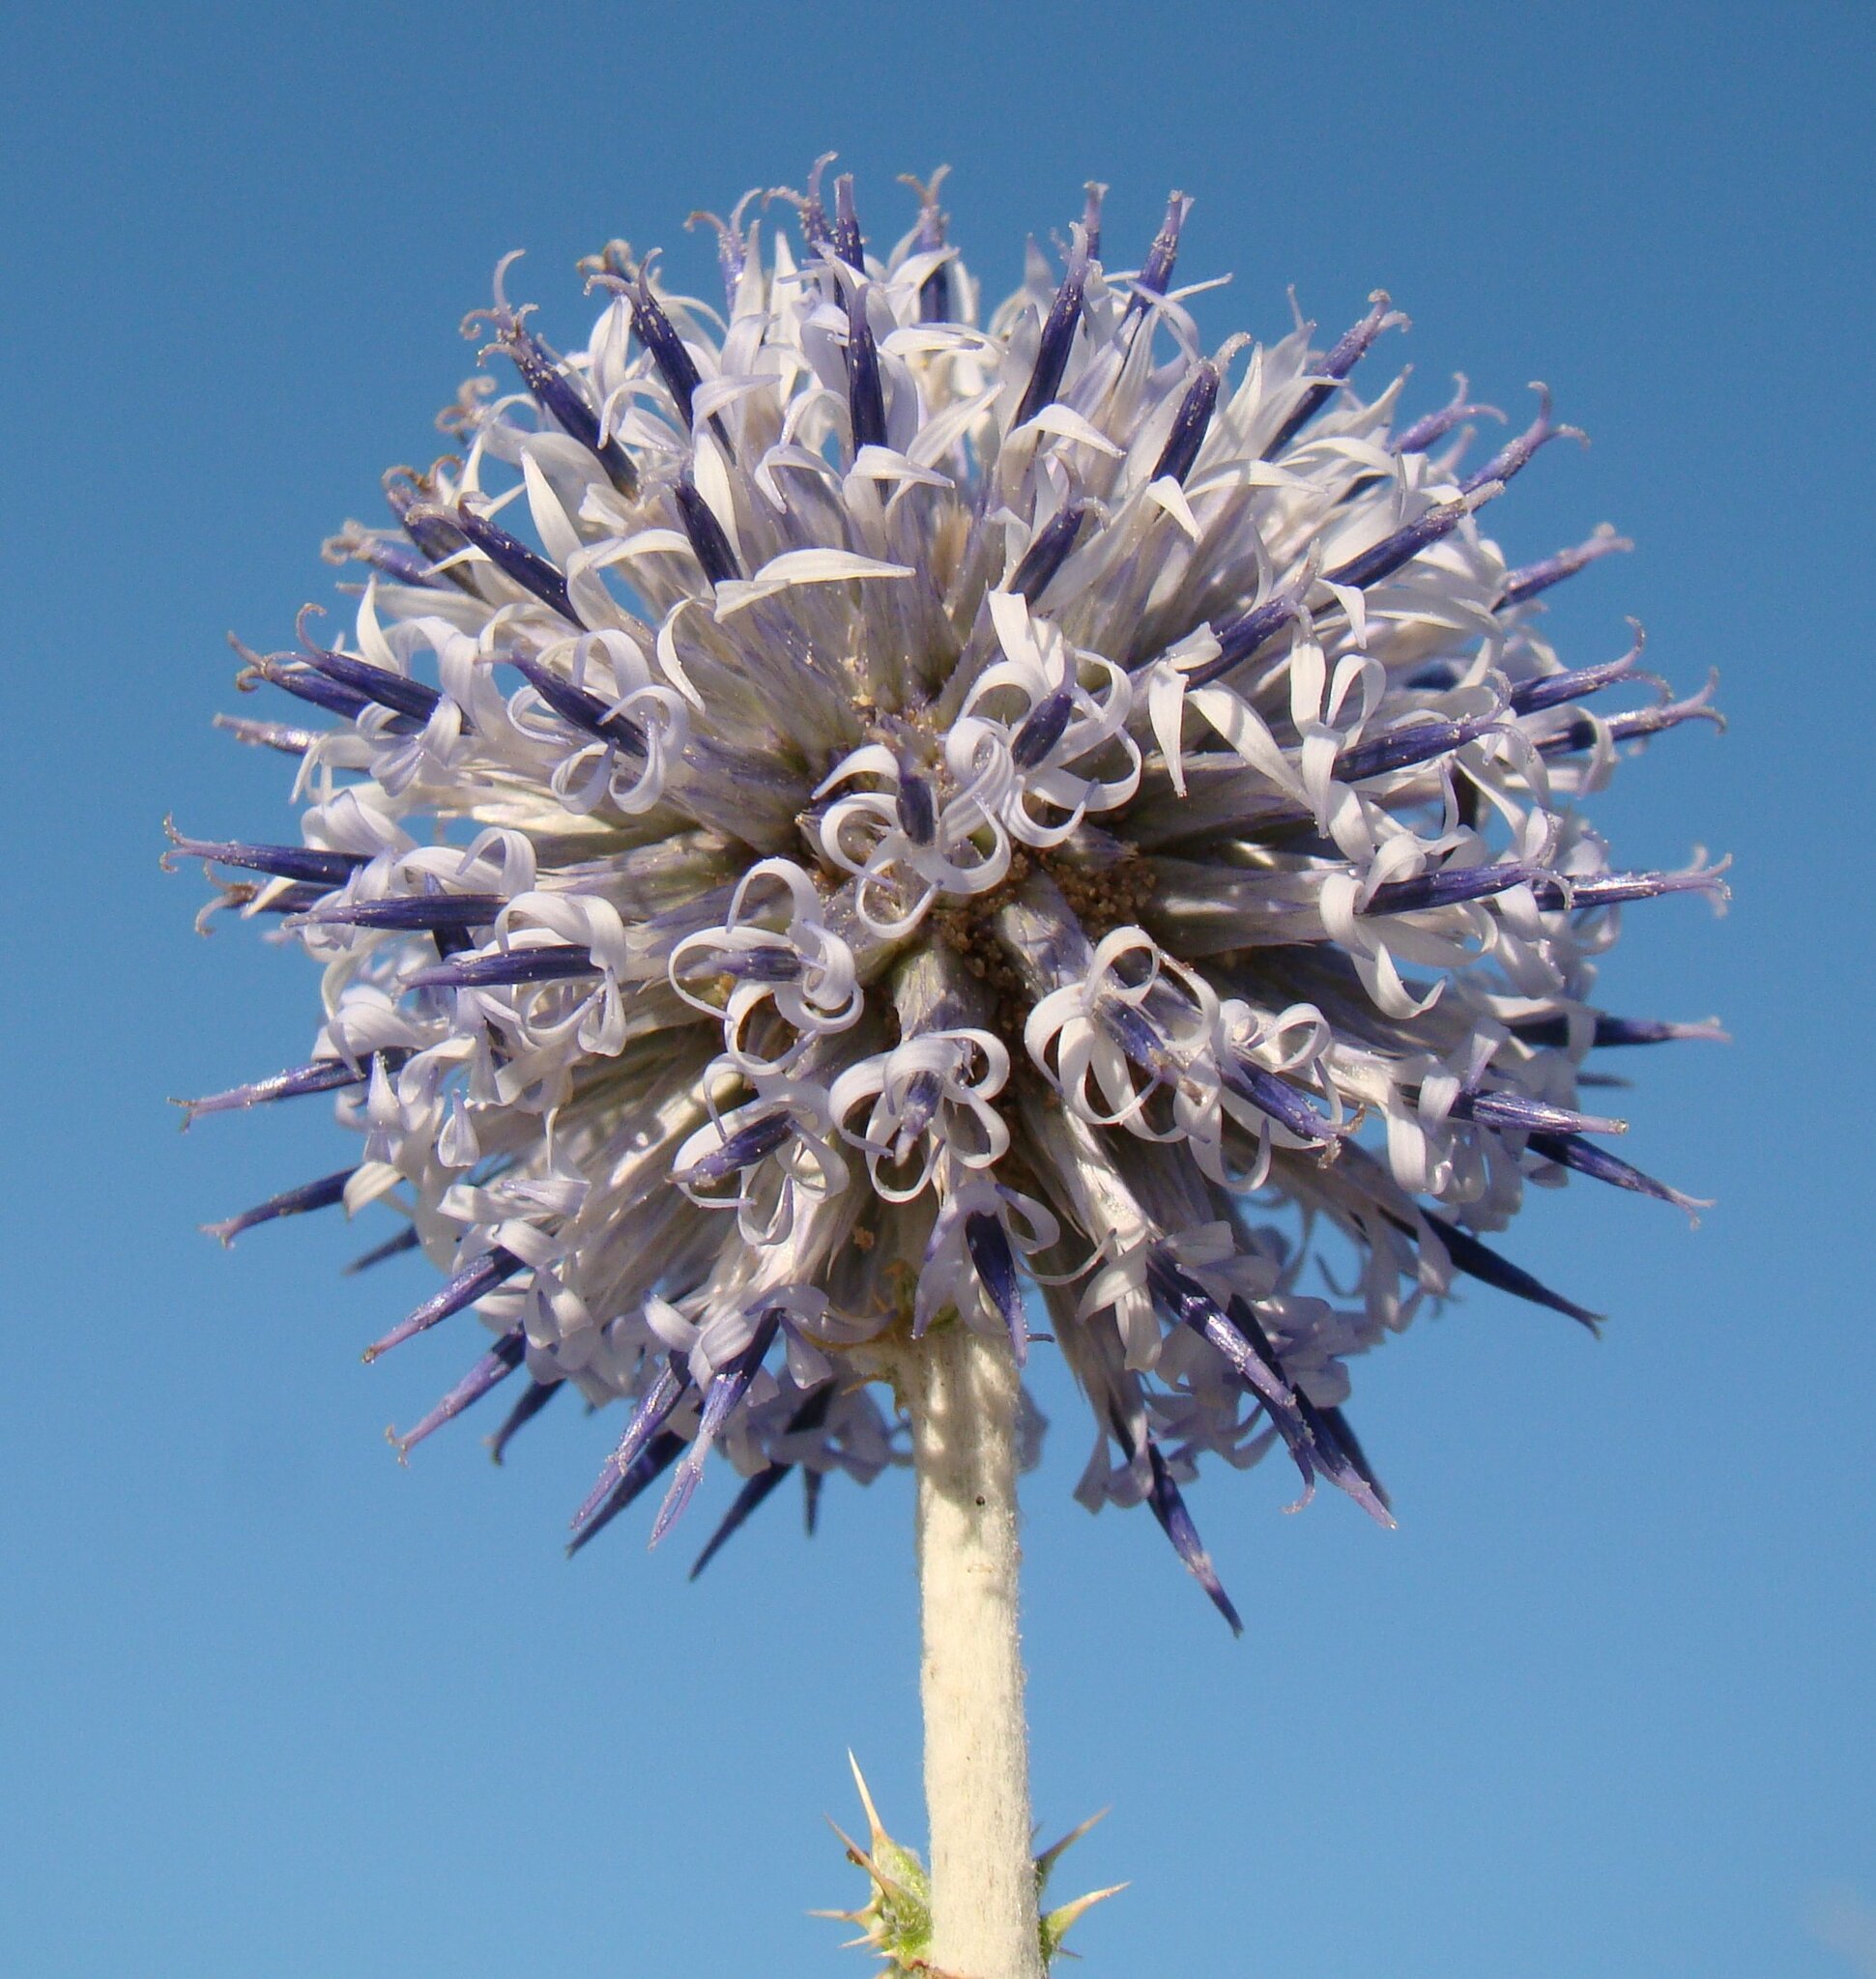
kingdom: Plantae
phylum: Tracheophyta
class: Magnoliopsida
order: Asterales
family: Asteraceae
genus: Echinops
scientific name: Echinops albicaulis
